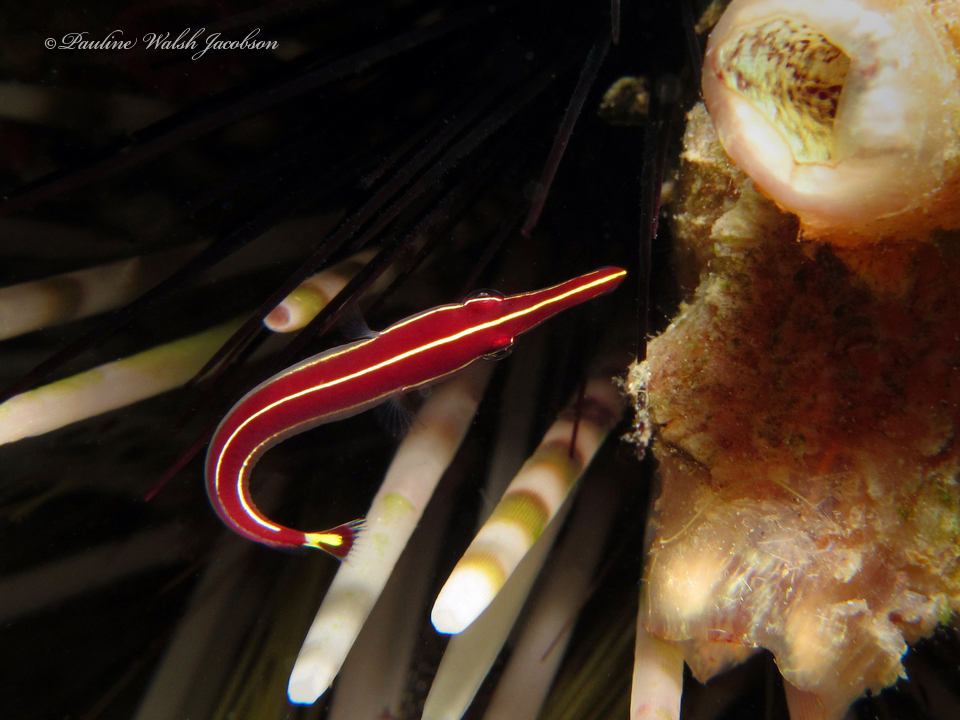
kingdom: Animalia
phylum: Chordata
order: Gobiesociformes
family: Gobiesocidae
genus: Diademichthys
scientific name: Diademichthys lineatus
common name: Urchin clingfish
